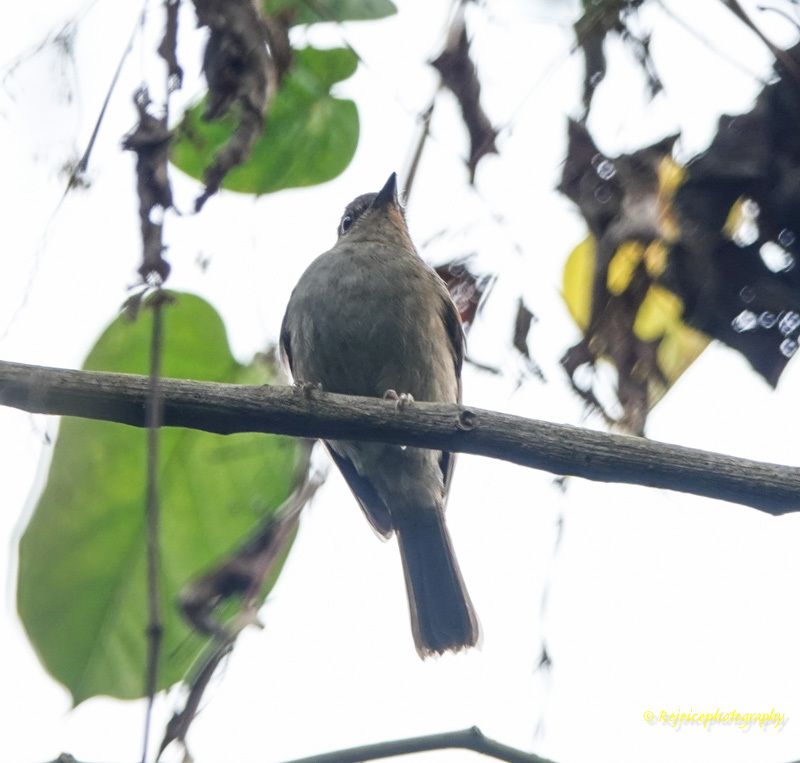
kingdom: Animalia
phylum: Chordata
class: Aves
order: Passeriformes
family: Muscicapidae
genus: Cyornis
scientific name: Cyornis unicolor
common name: Pale blue flycatcher
